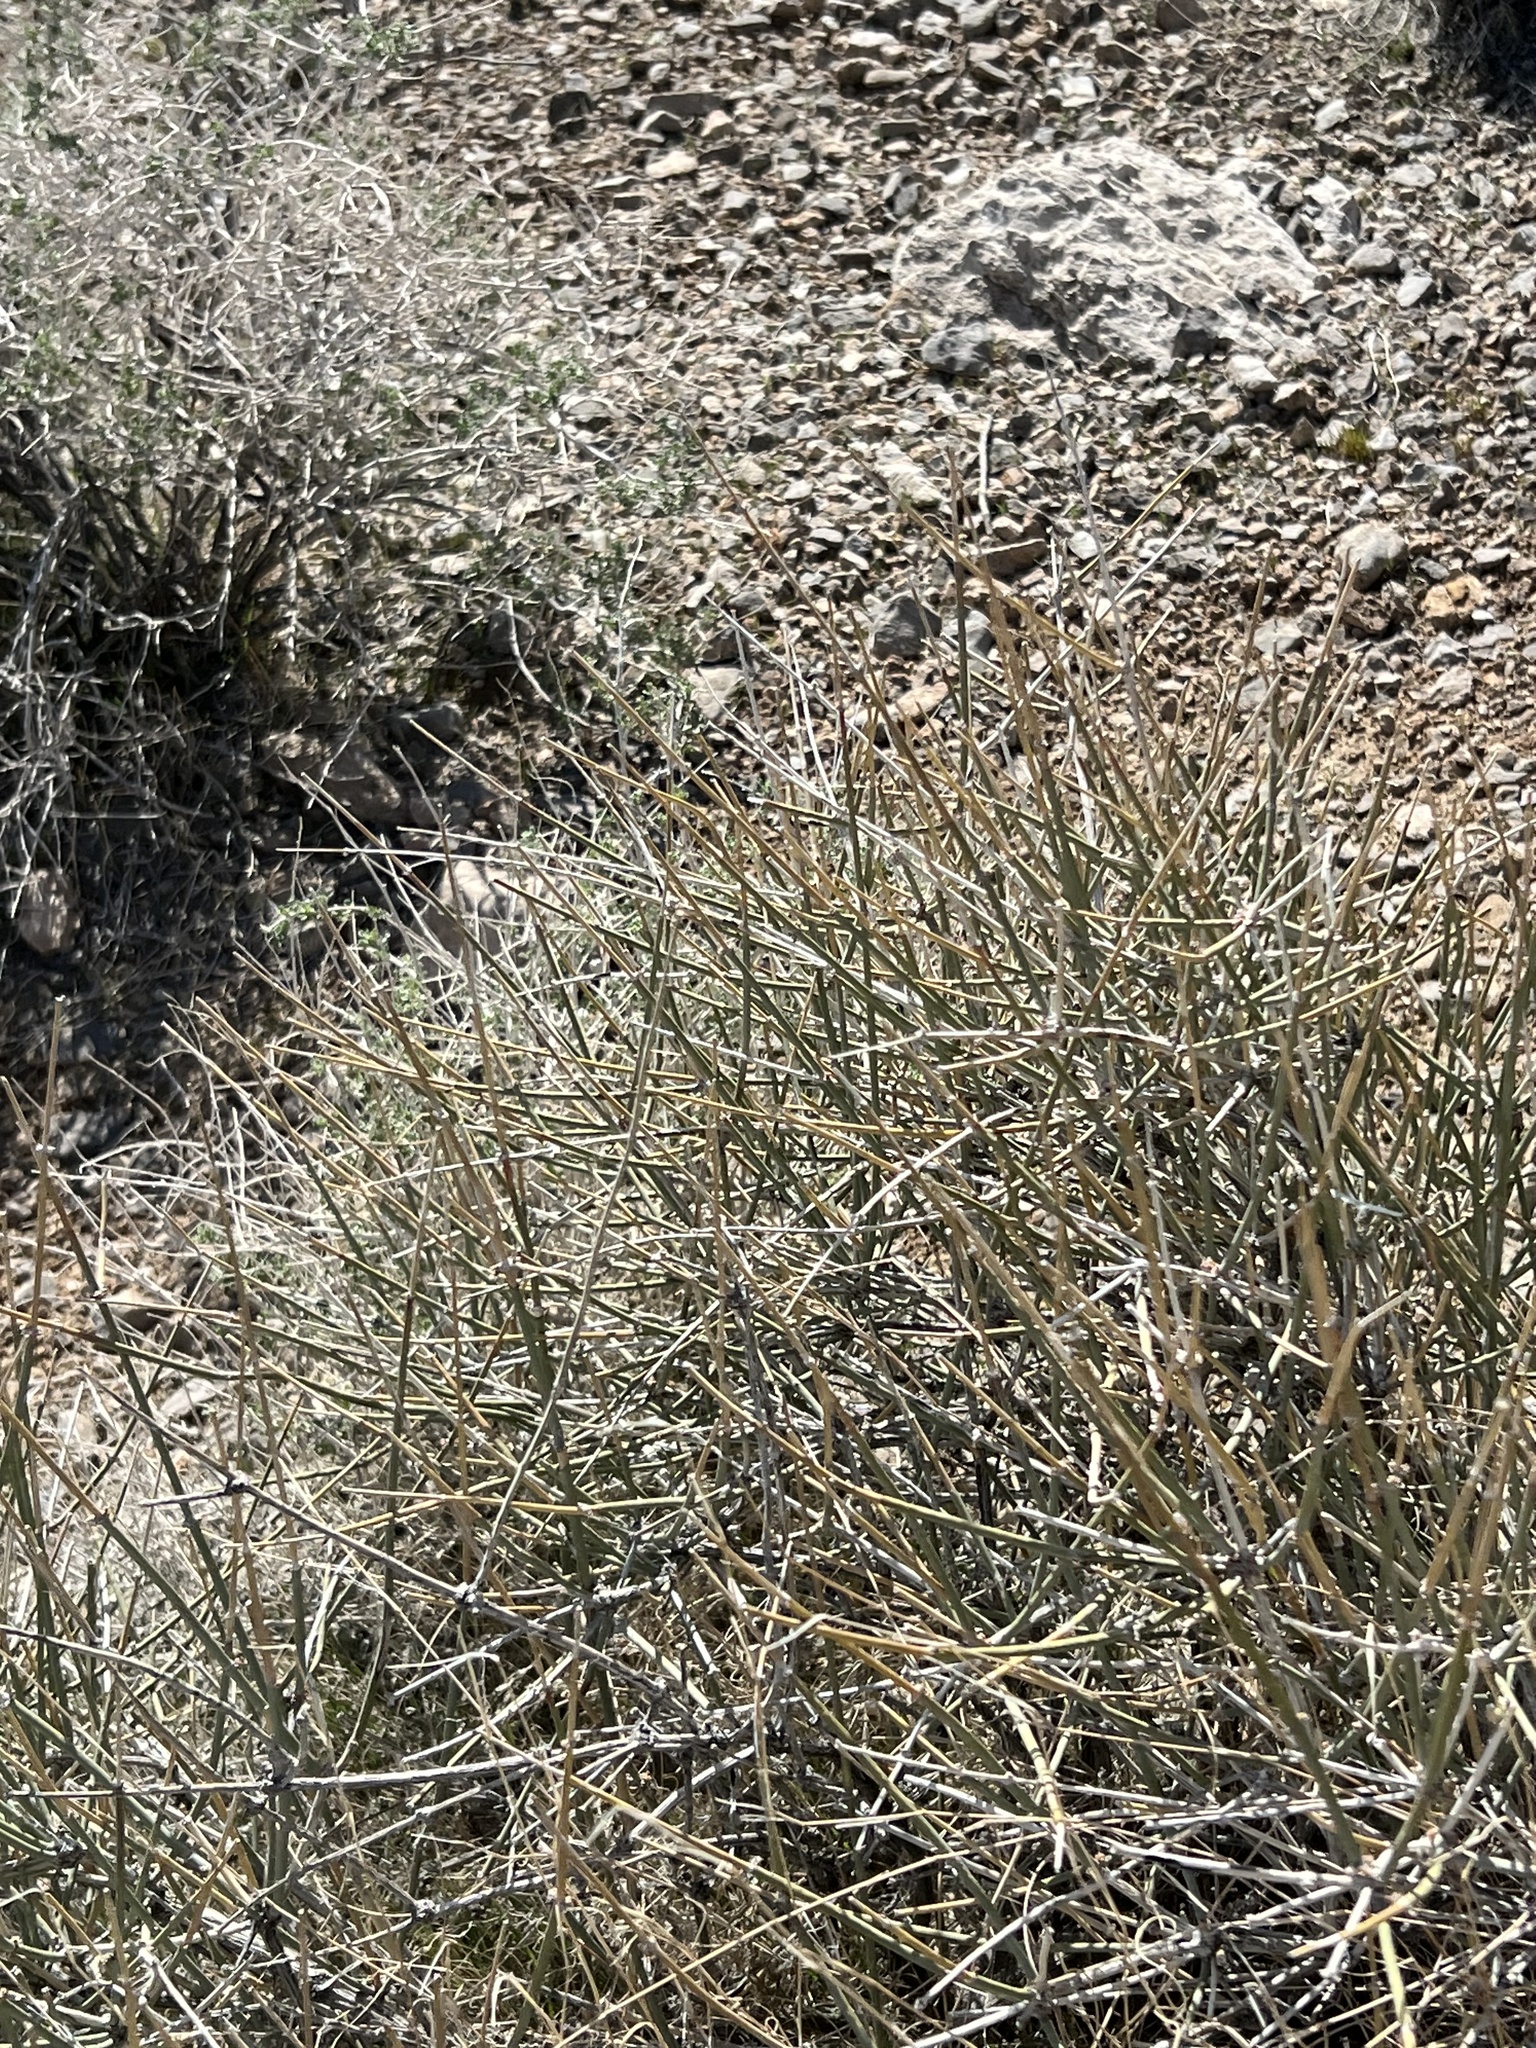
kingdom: Plantae
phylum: Tracheophyta
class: Gnetopsida
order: Ephedrales
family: Ephedraceae
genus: Ephedra
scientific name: Ephedra nevadensis
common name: Gray ephedra
